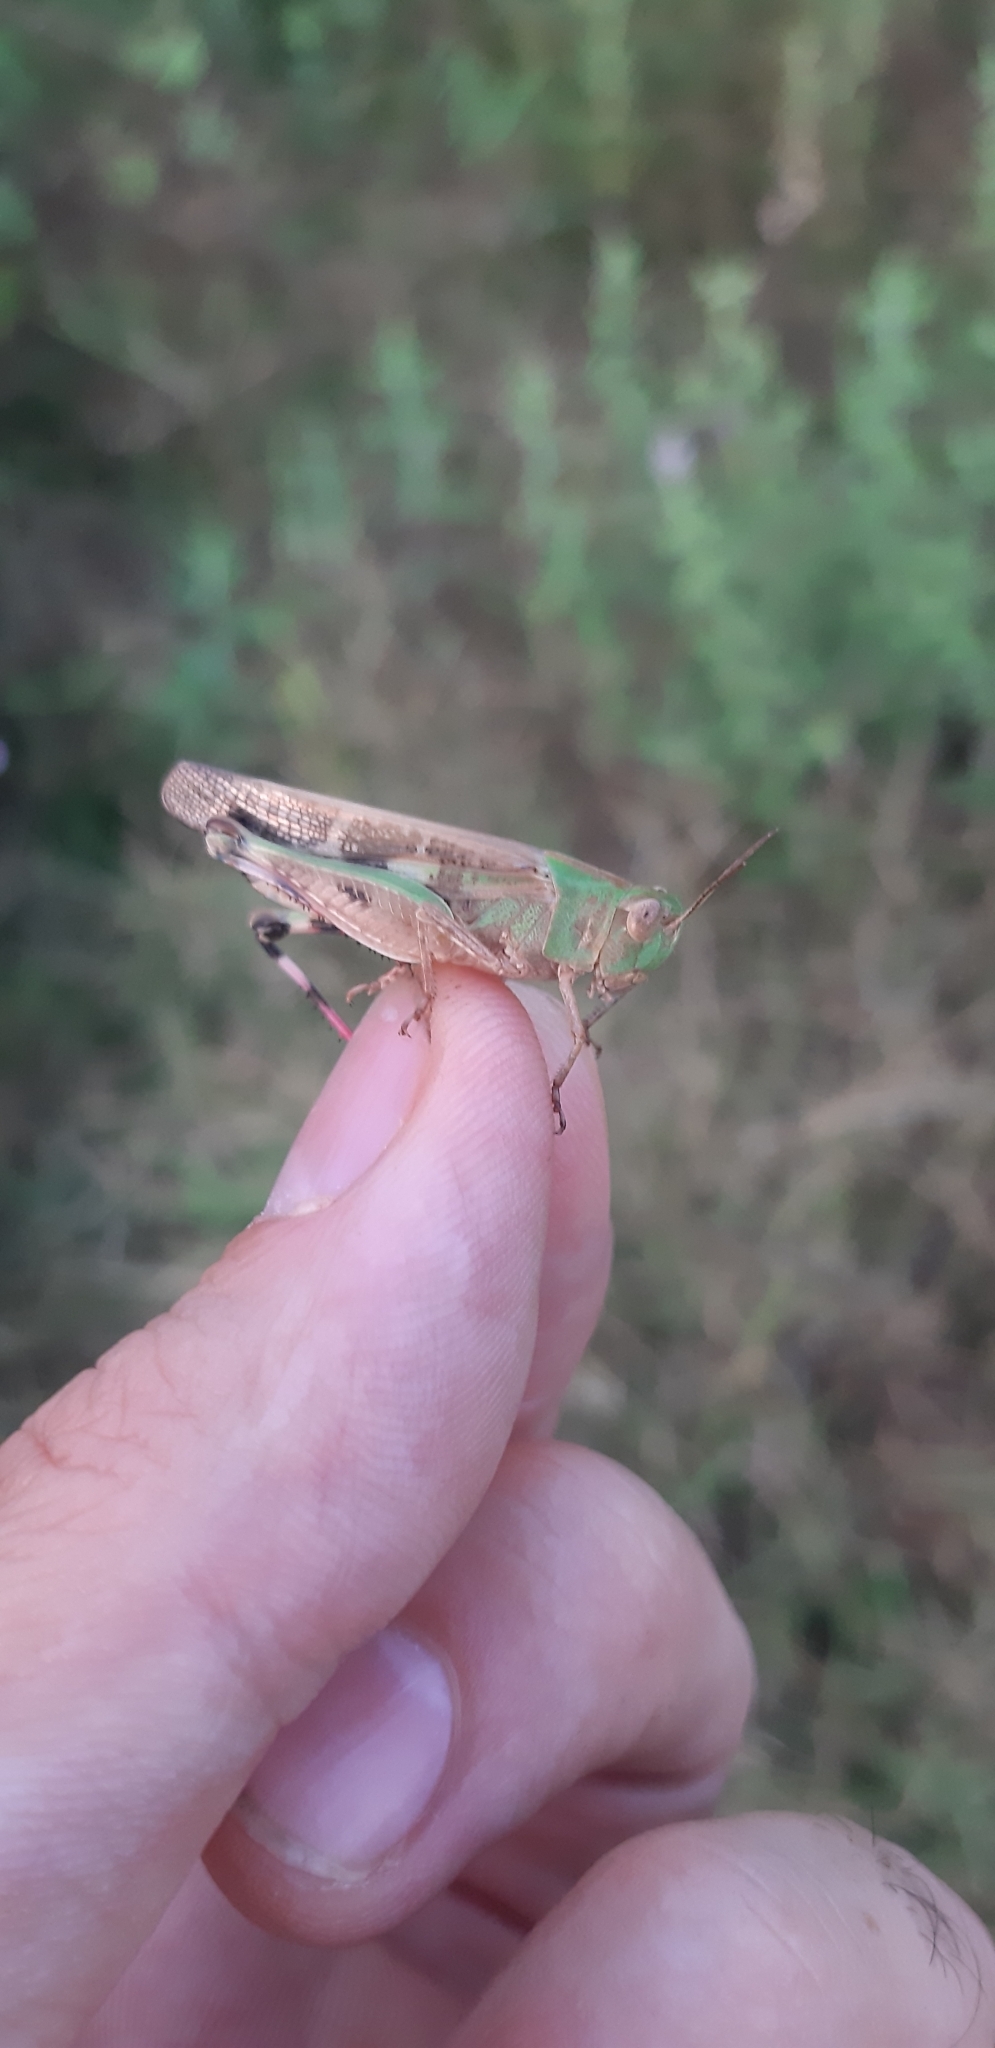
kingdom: Animalia
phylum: Arthropoda
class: Insecta
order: Orthoptera
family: Acrididae
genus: Aiolopus
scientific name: Aiolopus strepens
